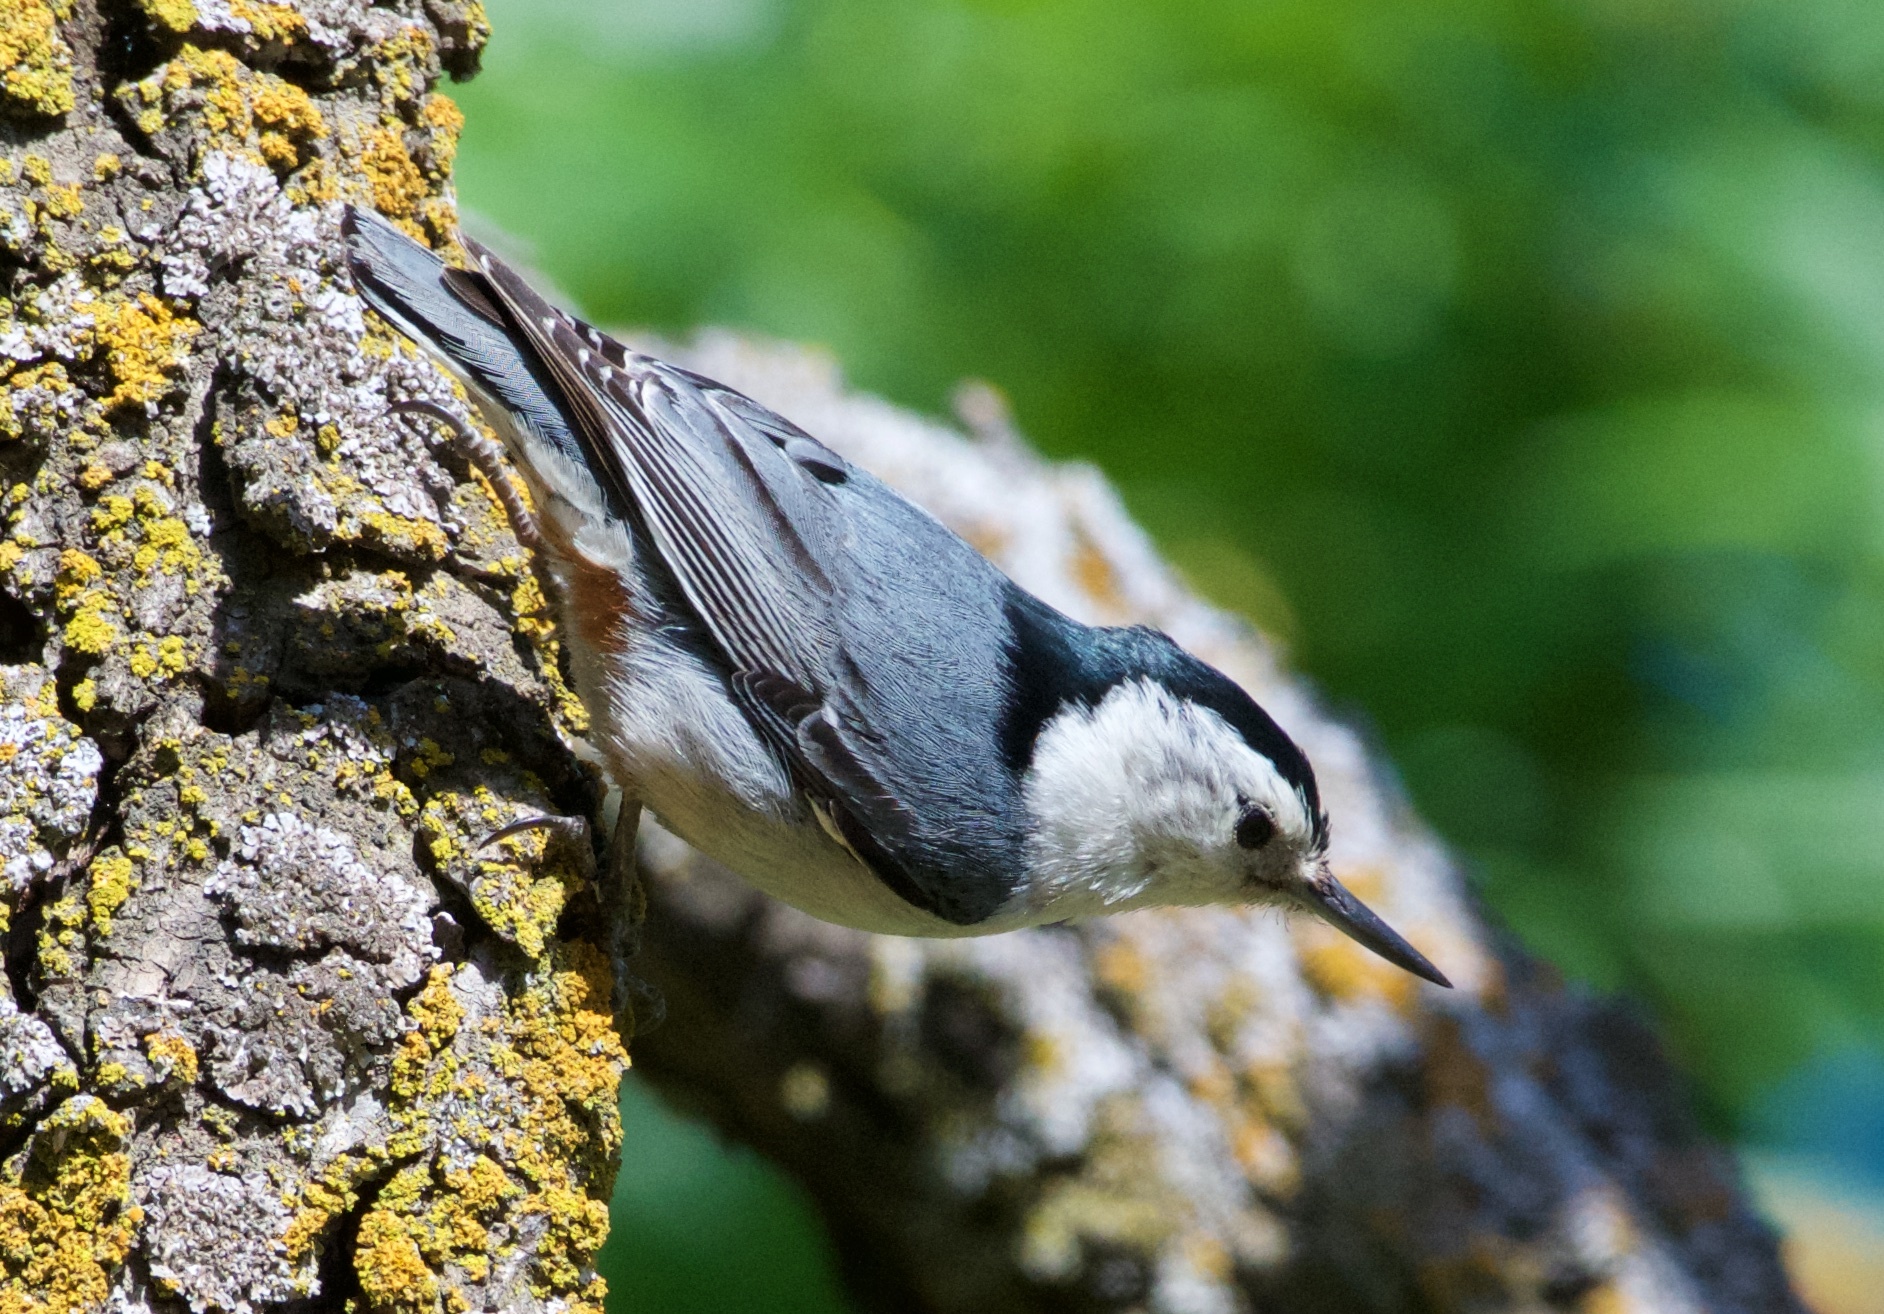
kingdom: Animalia
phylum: Chordata
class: Aves
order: Passeriformes
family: Sittidae
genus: Sitta
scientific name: Sitta carolinensis
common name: White-breasted nuthatch
